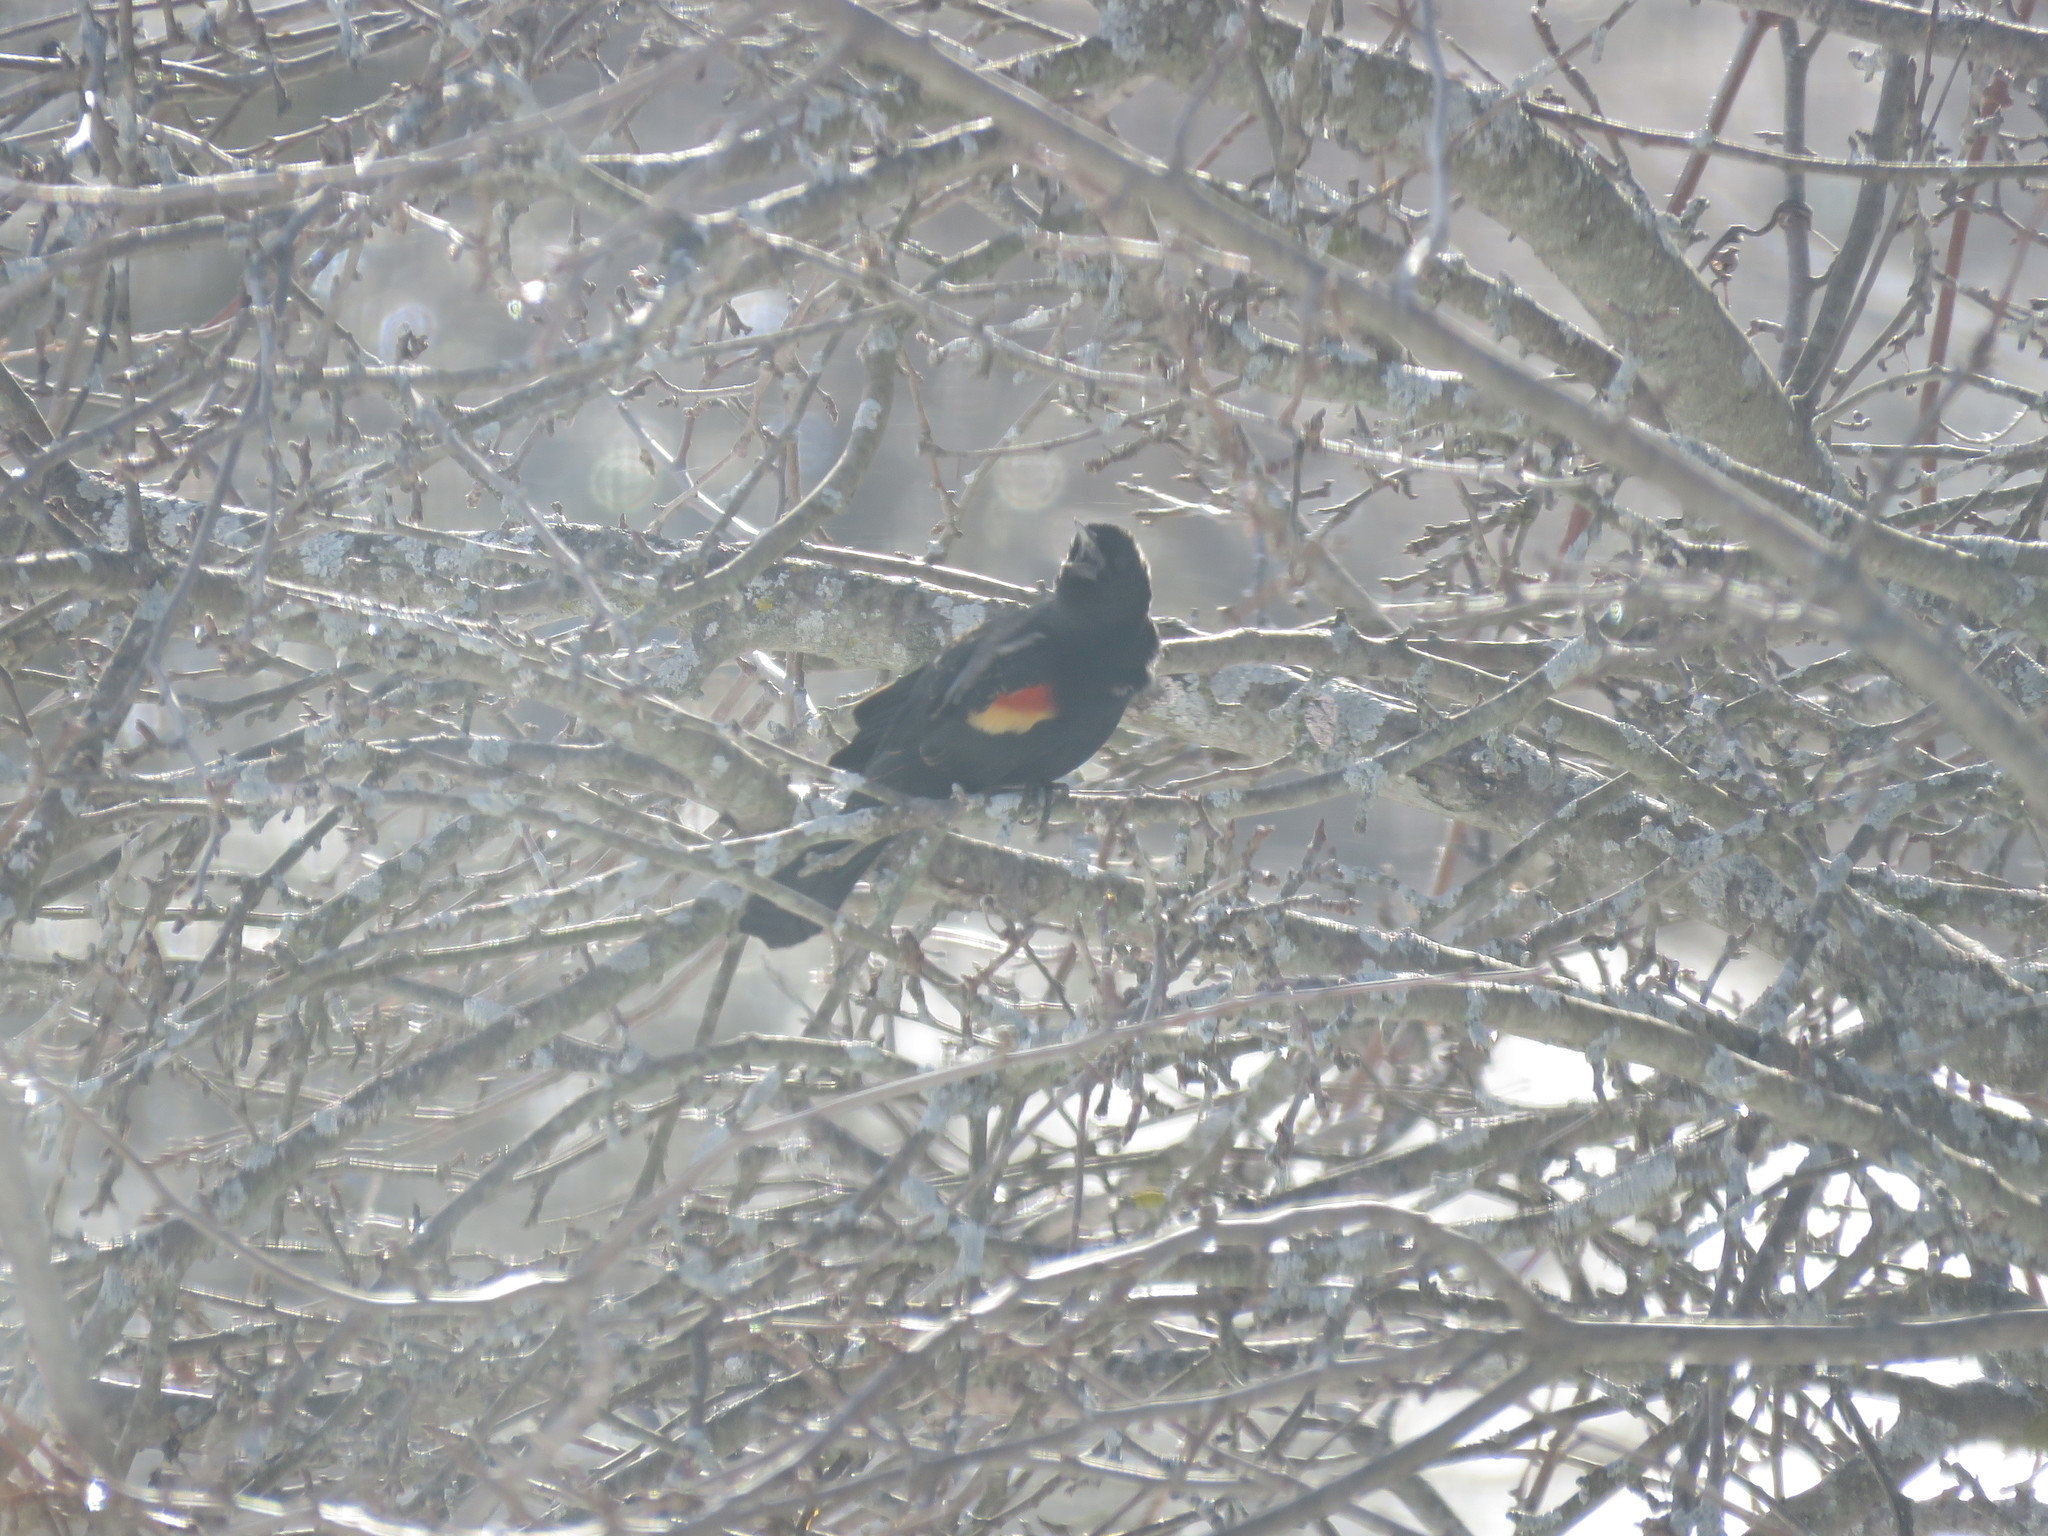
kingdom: Animalia
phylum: Chordata
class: Aves
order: Passeriformes
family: Icteridae
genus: Agelaius
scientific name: Agelaius phoeniceus
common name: Red-winged blackbird
